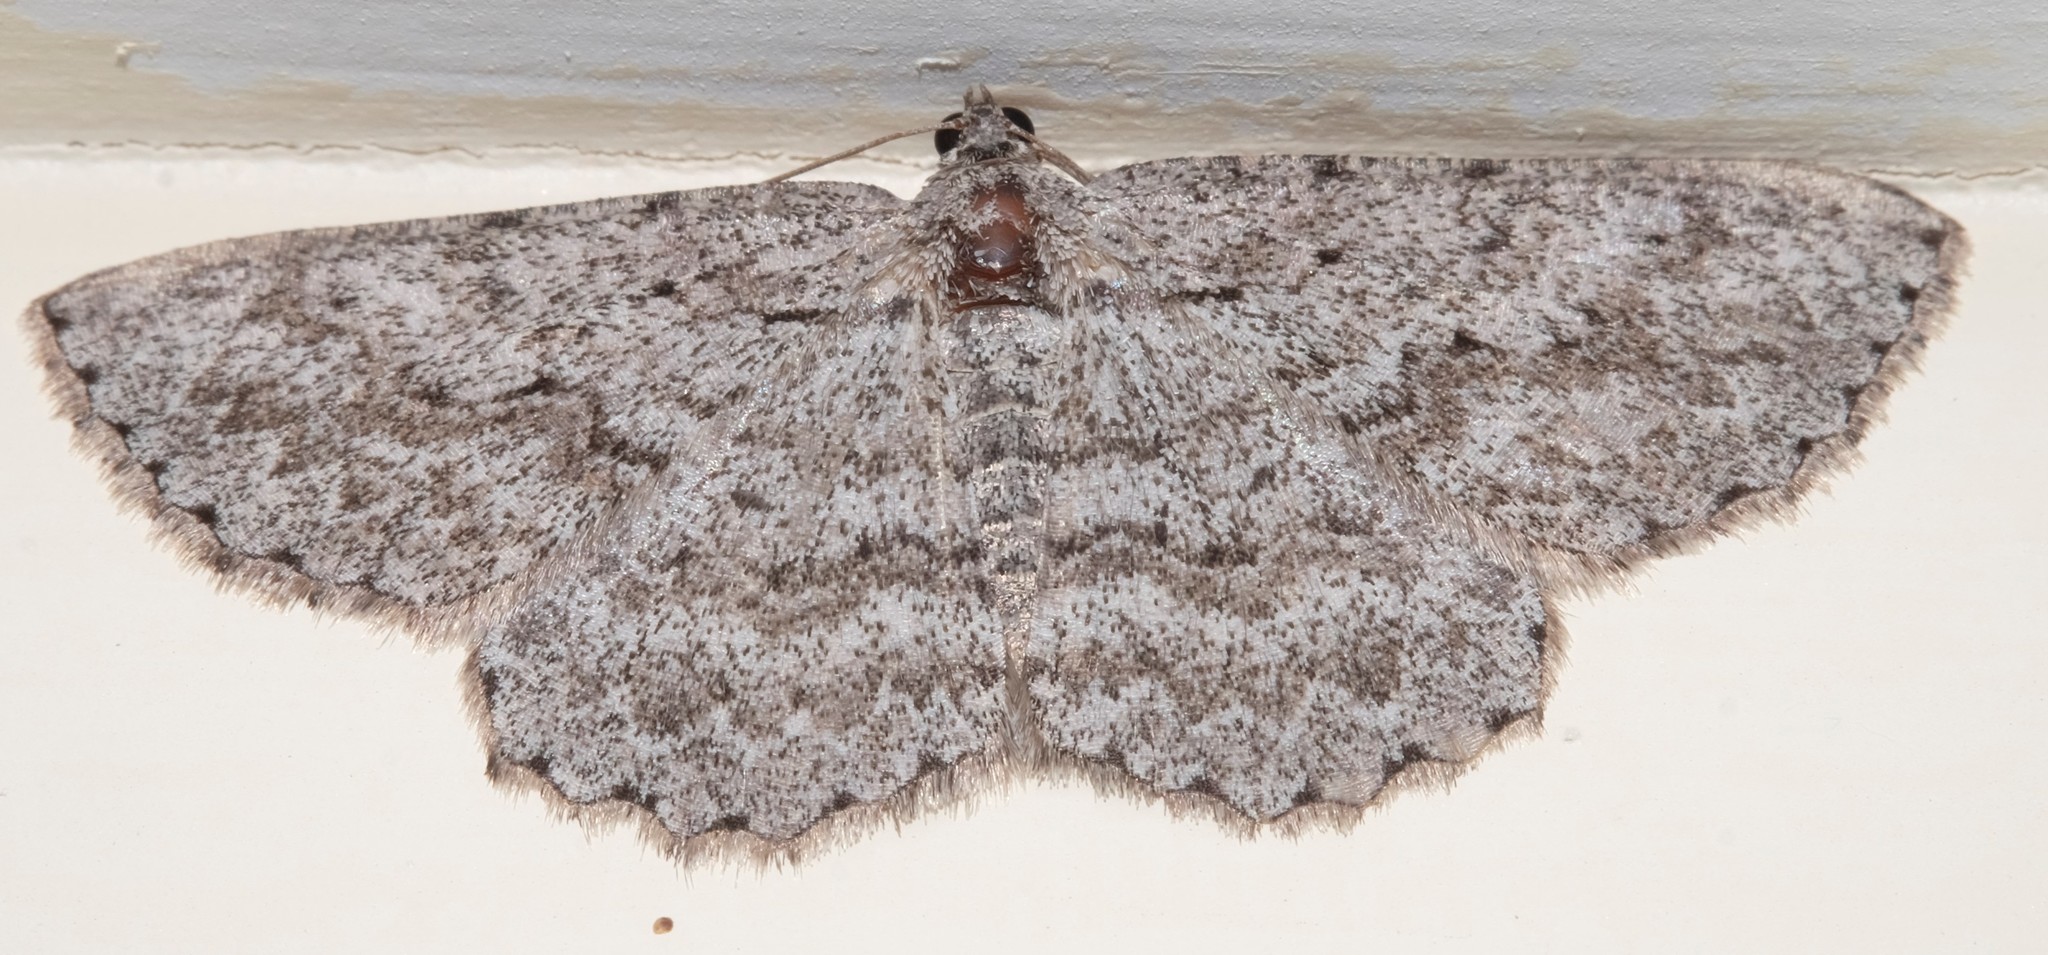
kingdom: Animalia
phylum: Arthropoda
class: Insecta
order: Lepidoptera
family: Geometridae
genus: Psilosticha
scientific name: Psilosticha absorpta
